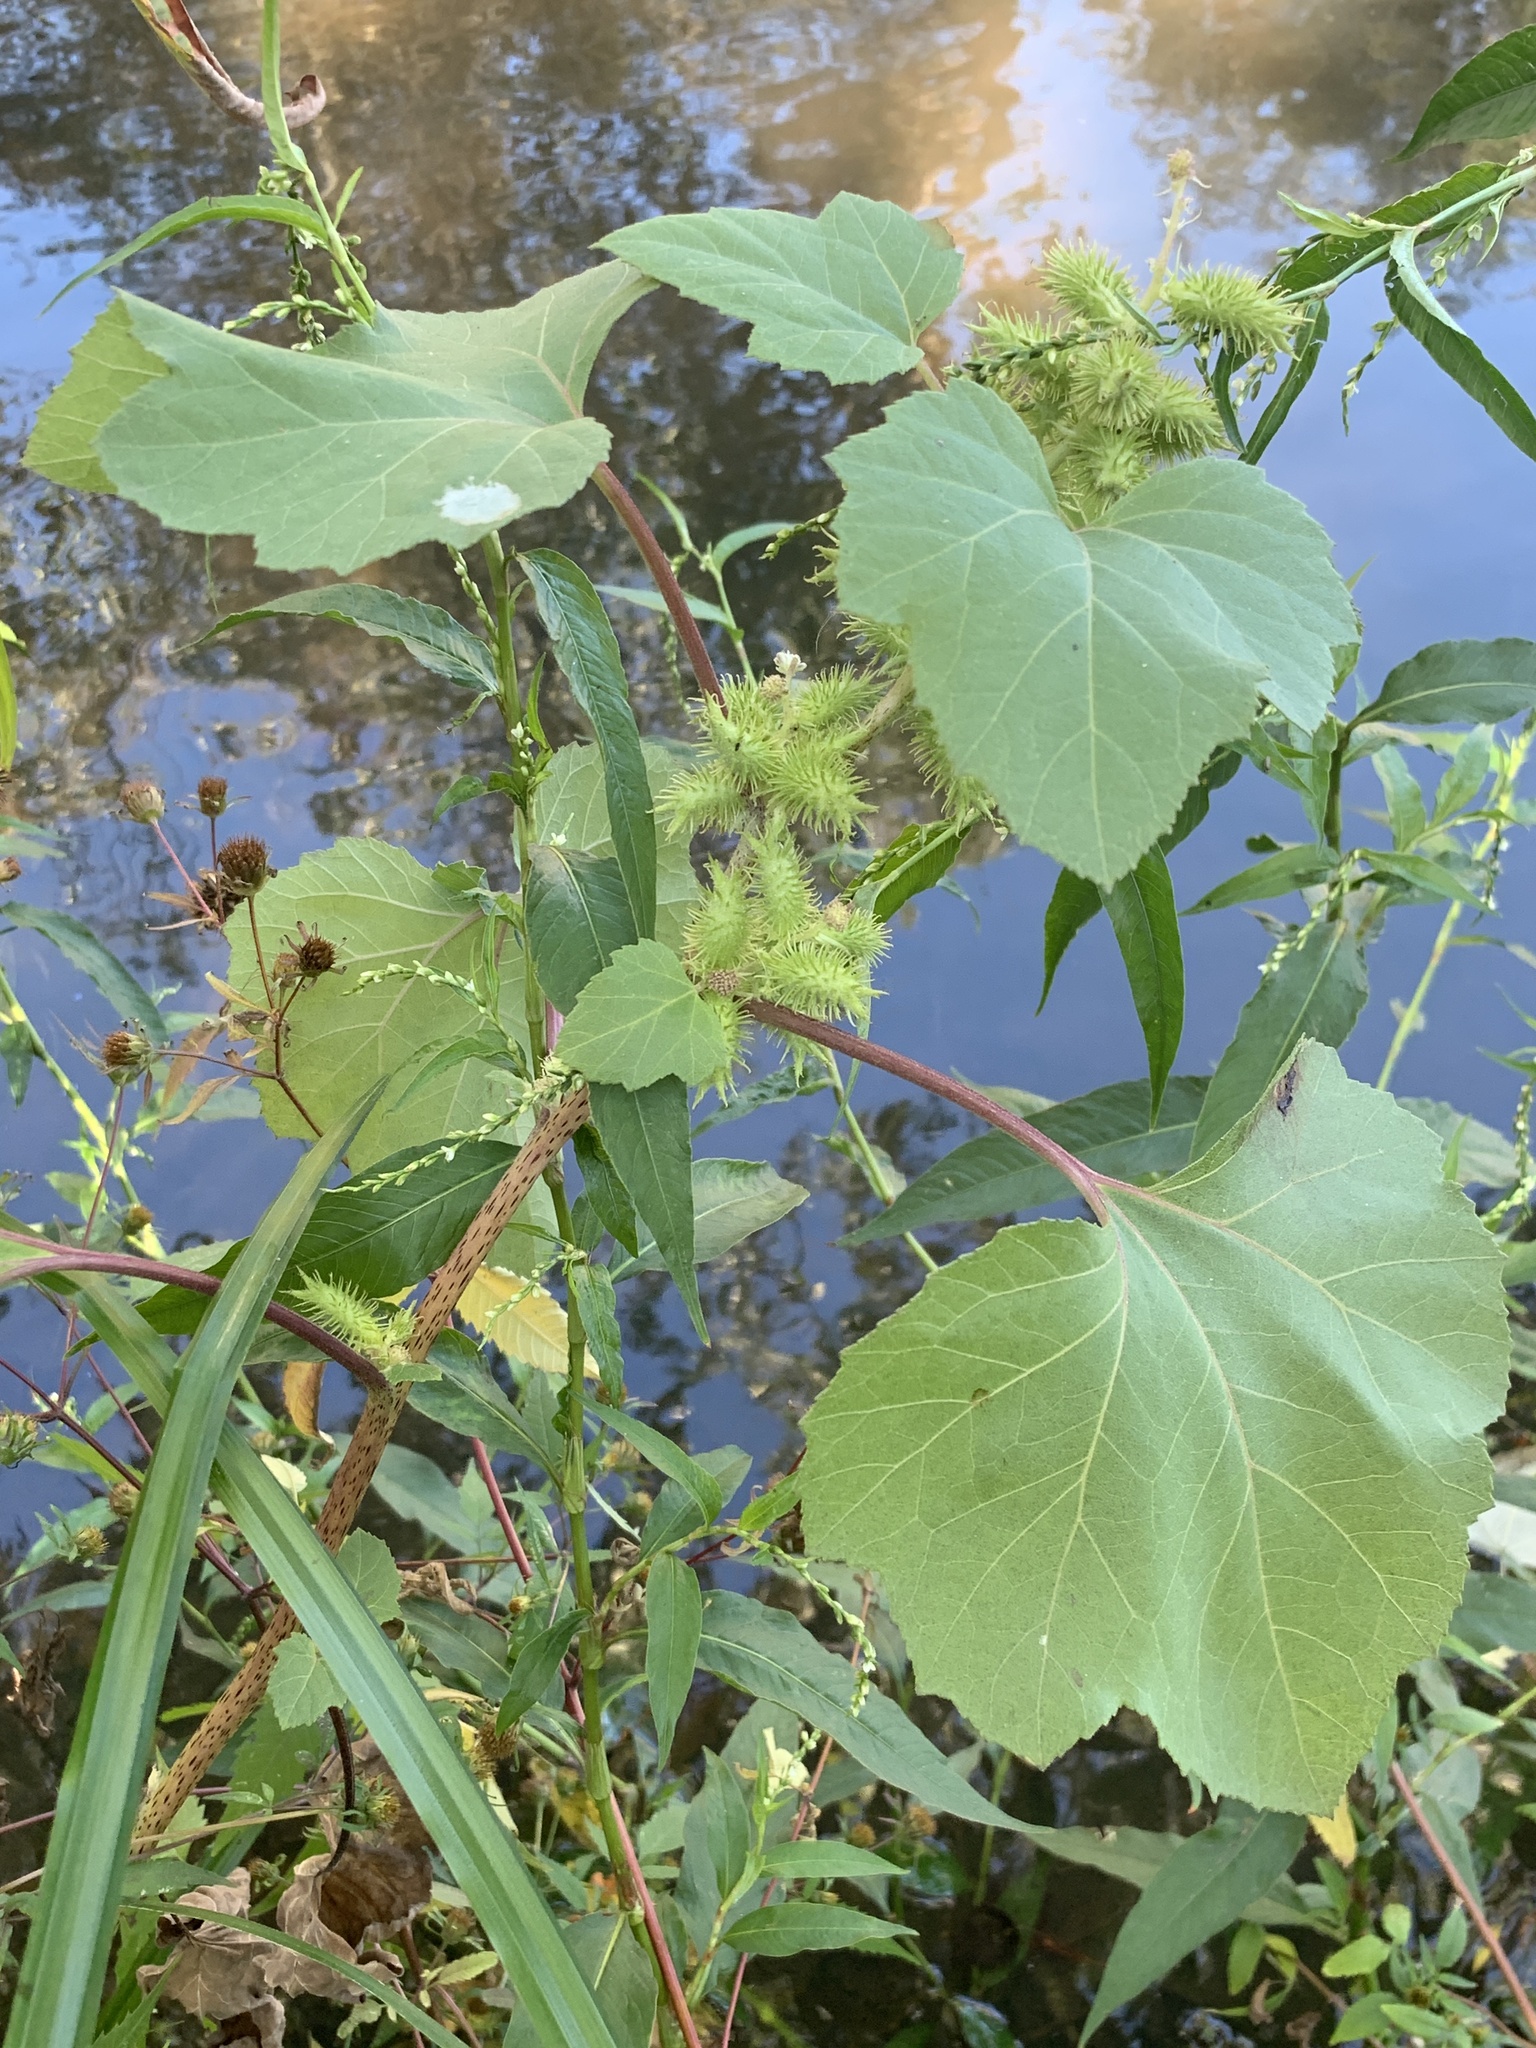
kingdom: Plantae
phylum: Tracheophyta
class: Magnoliopsida
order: Asterales
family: Asteraceae
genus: Xanthium
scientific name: Xanthium strumarium
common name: Rough cocklebur
